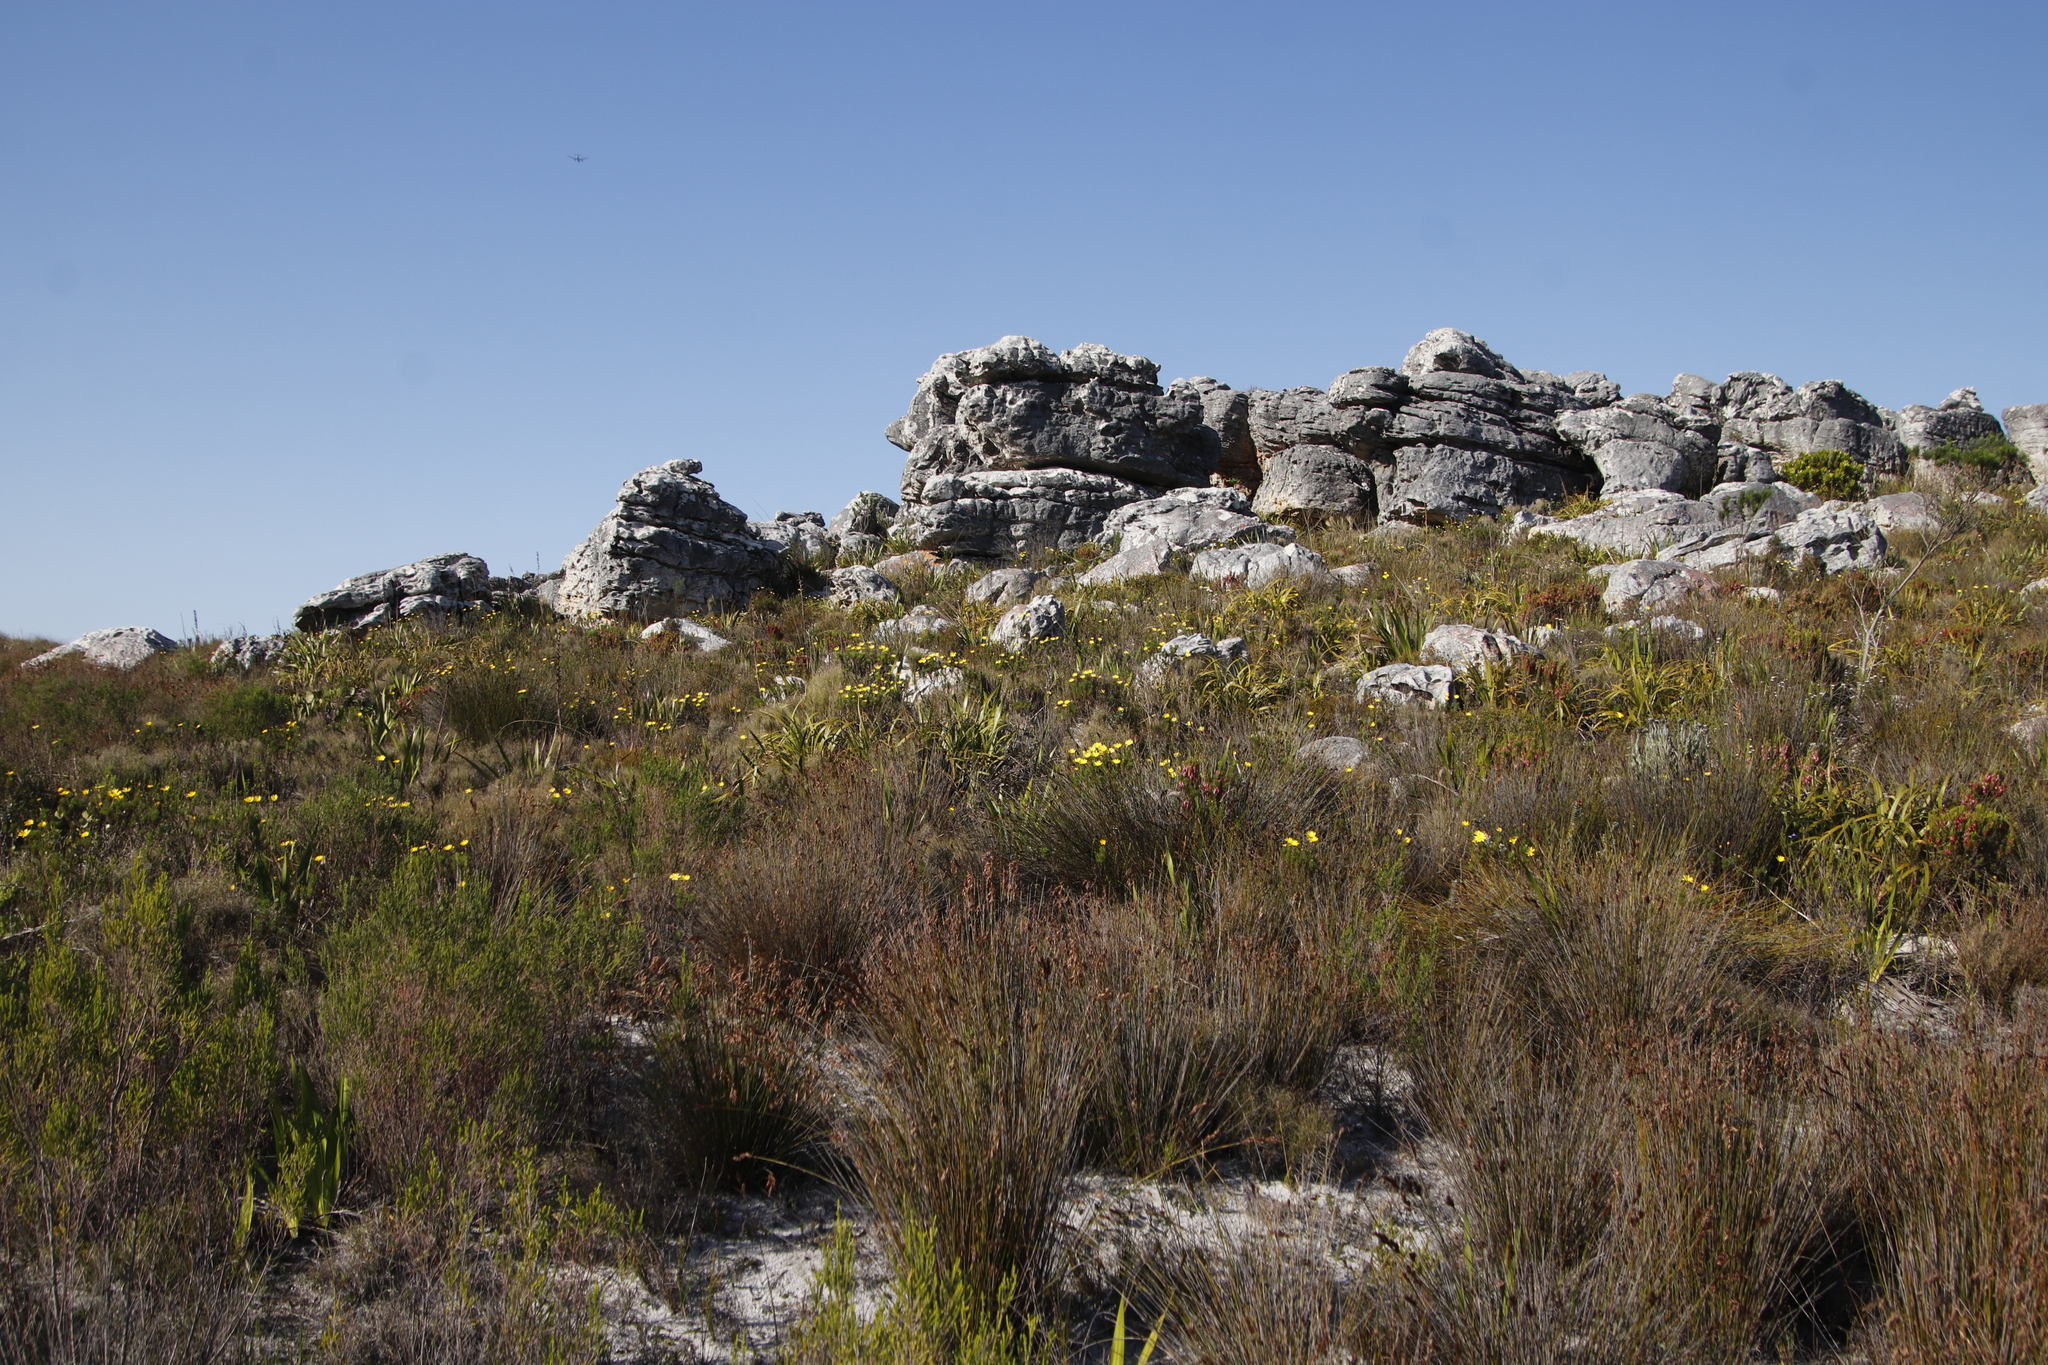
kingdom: Plantae
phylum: Tracheophyta
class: Magnoliopsida
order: Asterales
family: Asteraceae
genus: Euryops
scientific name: Euryops abrotanifolius
